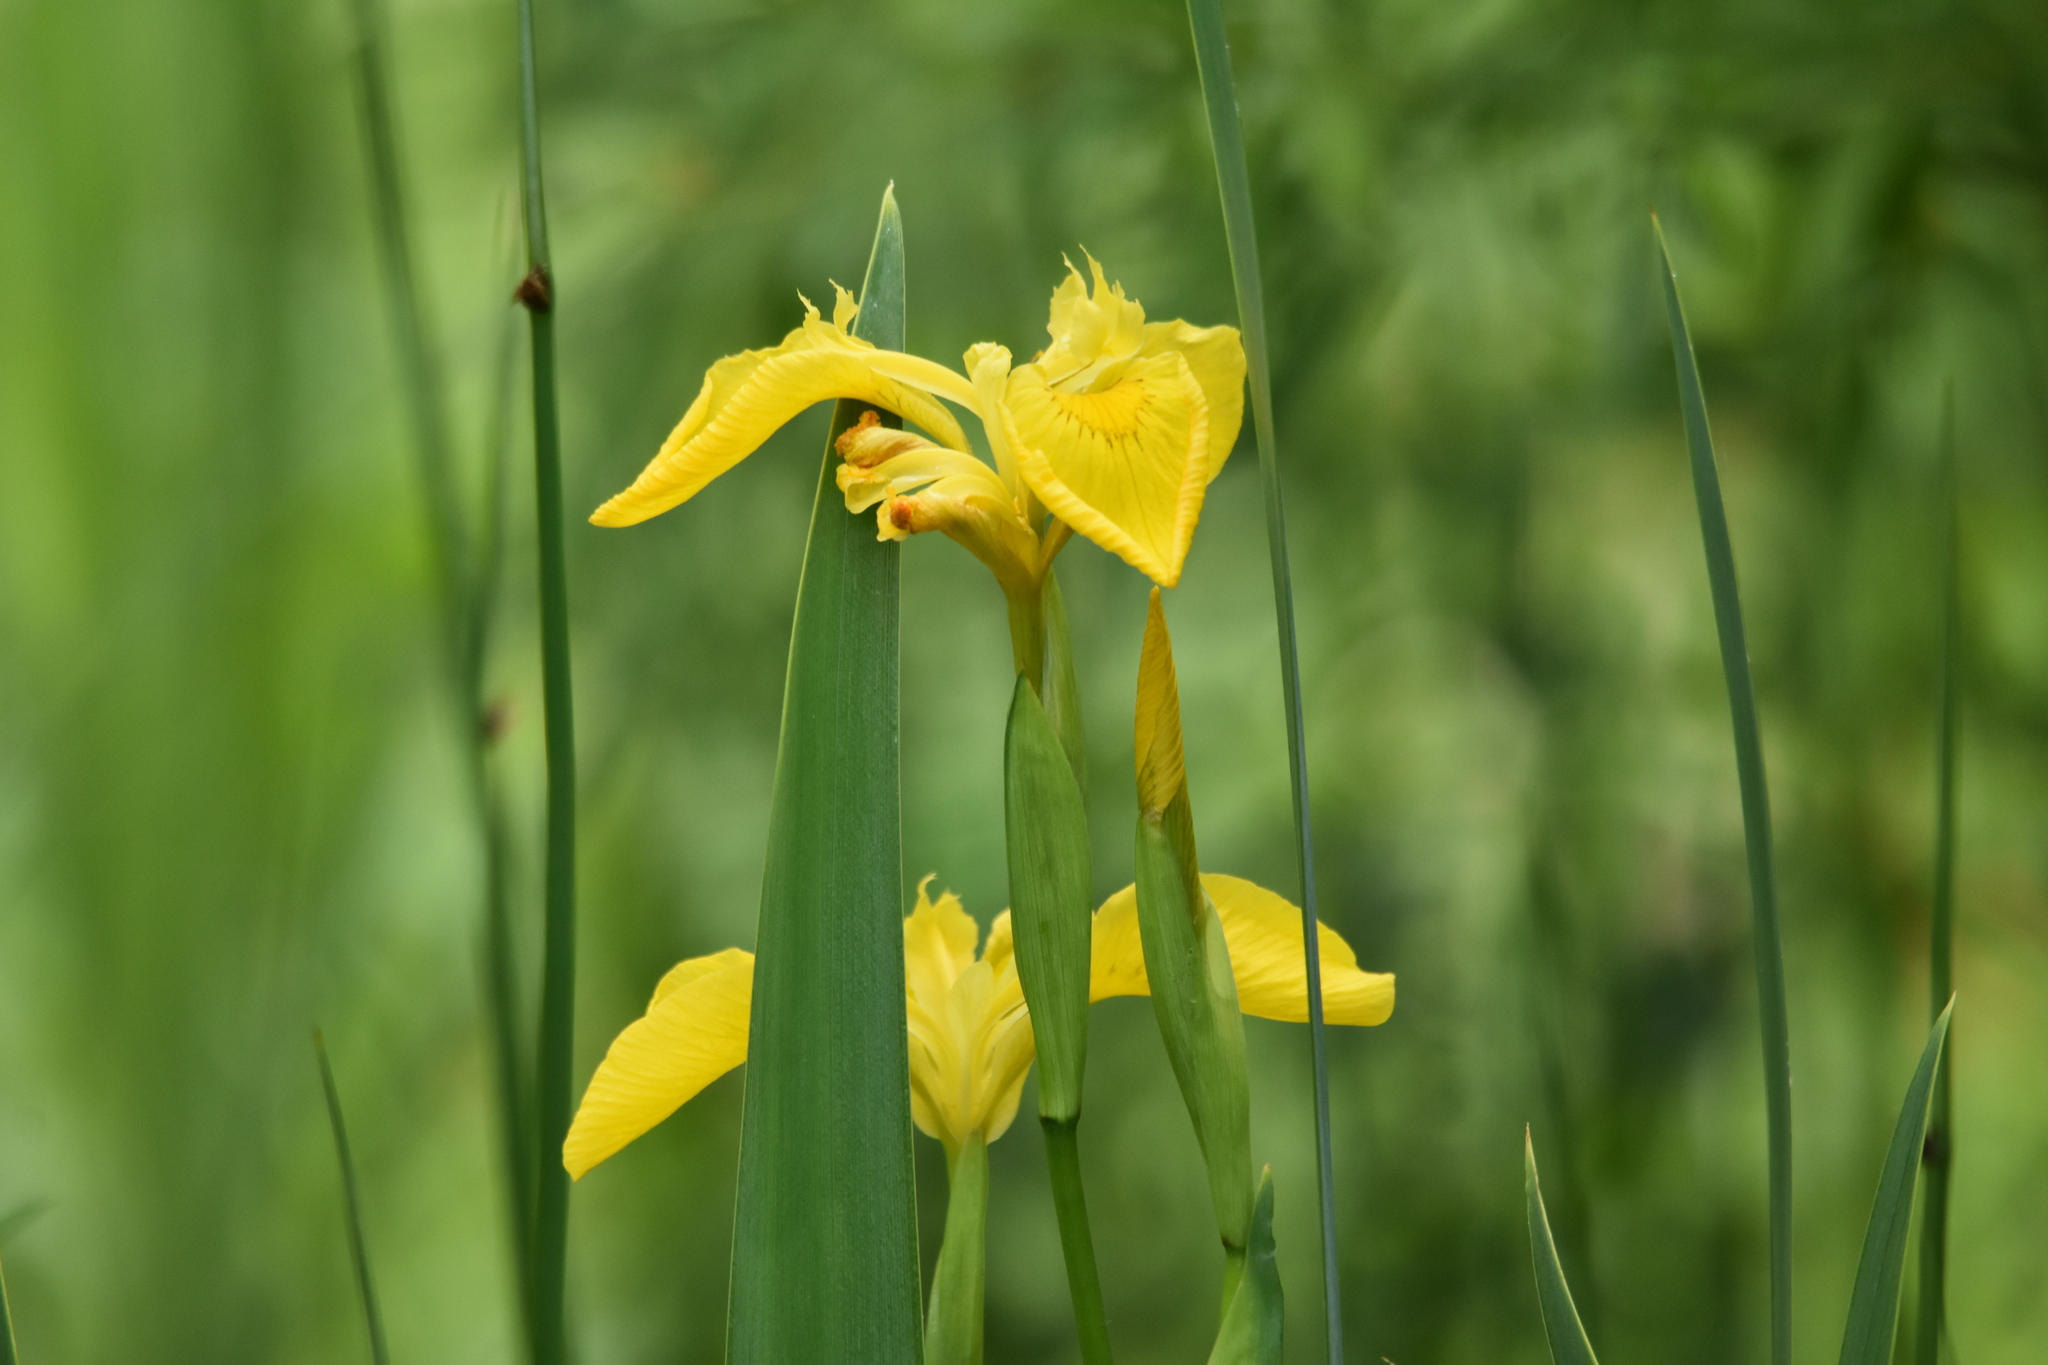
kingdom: Plantae
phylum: Tracheophyta
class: Liliopsida
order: Asparagales
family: Iridaceae
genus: Iris
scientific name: Iris pseudacorus
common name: Yellow flag
